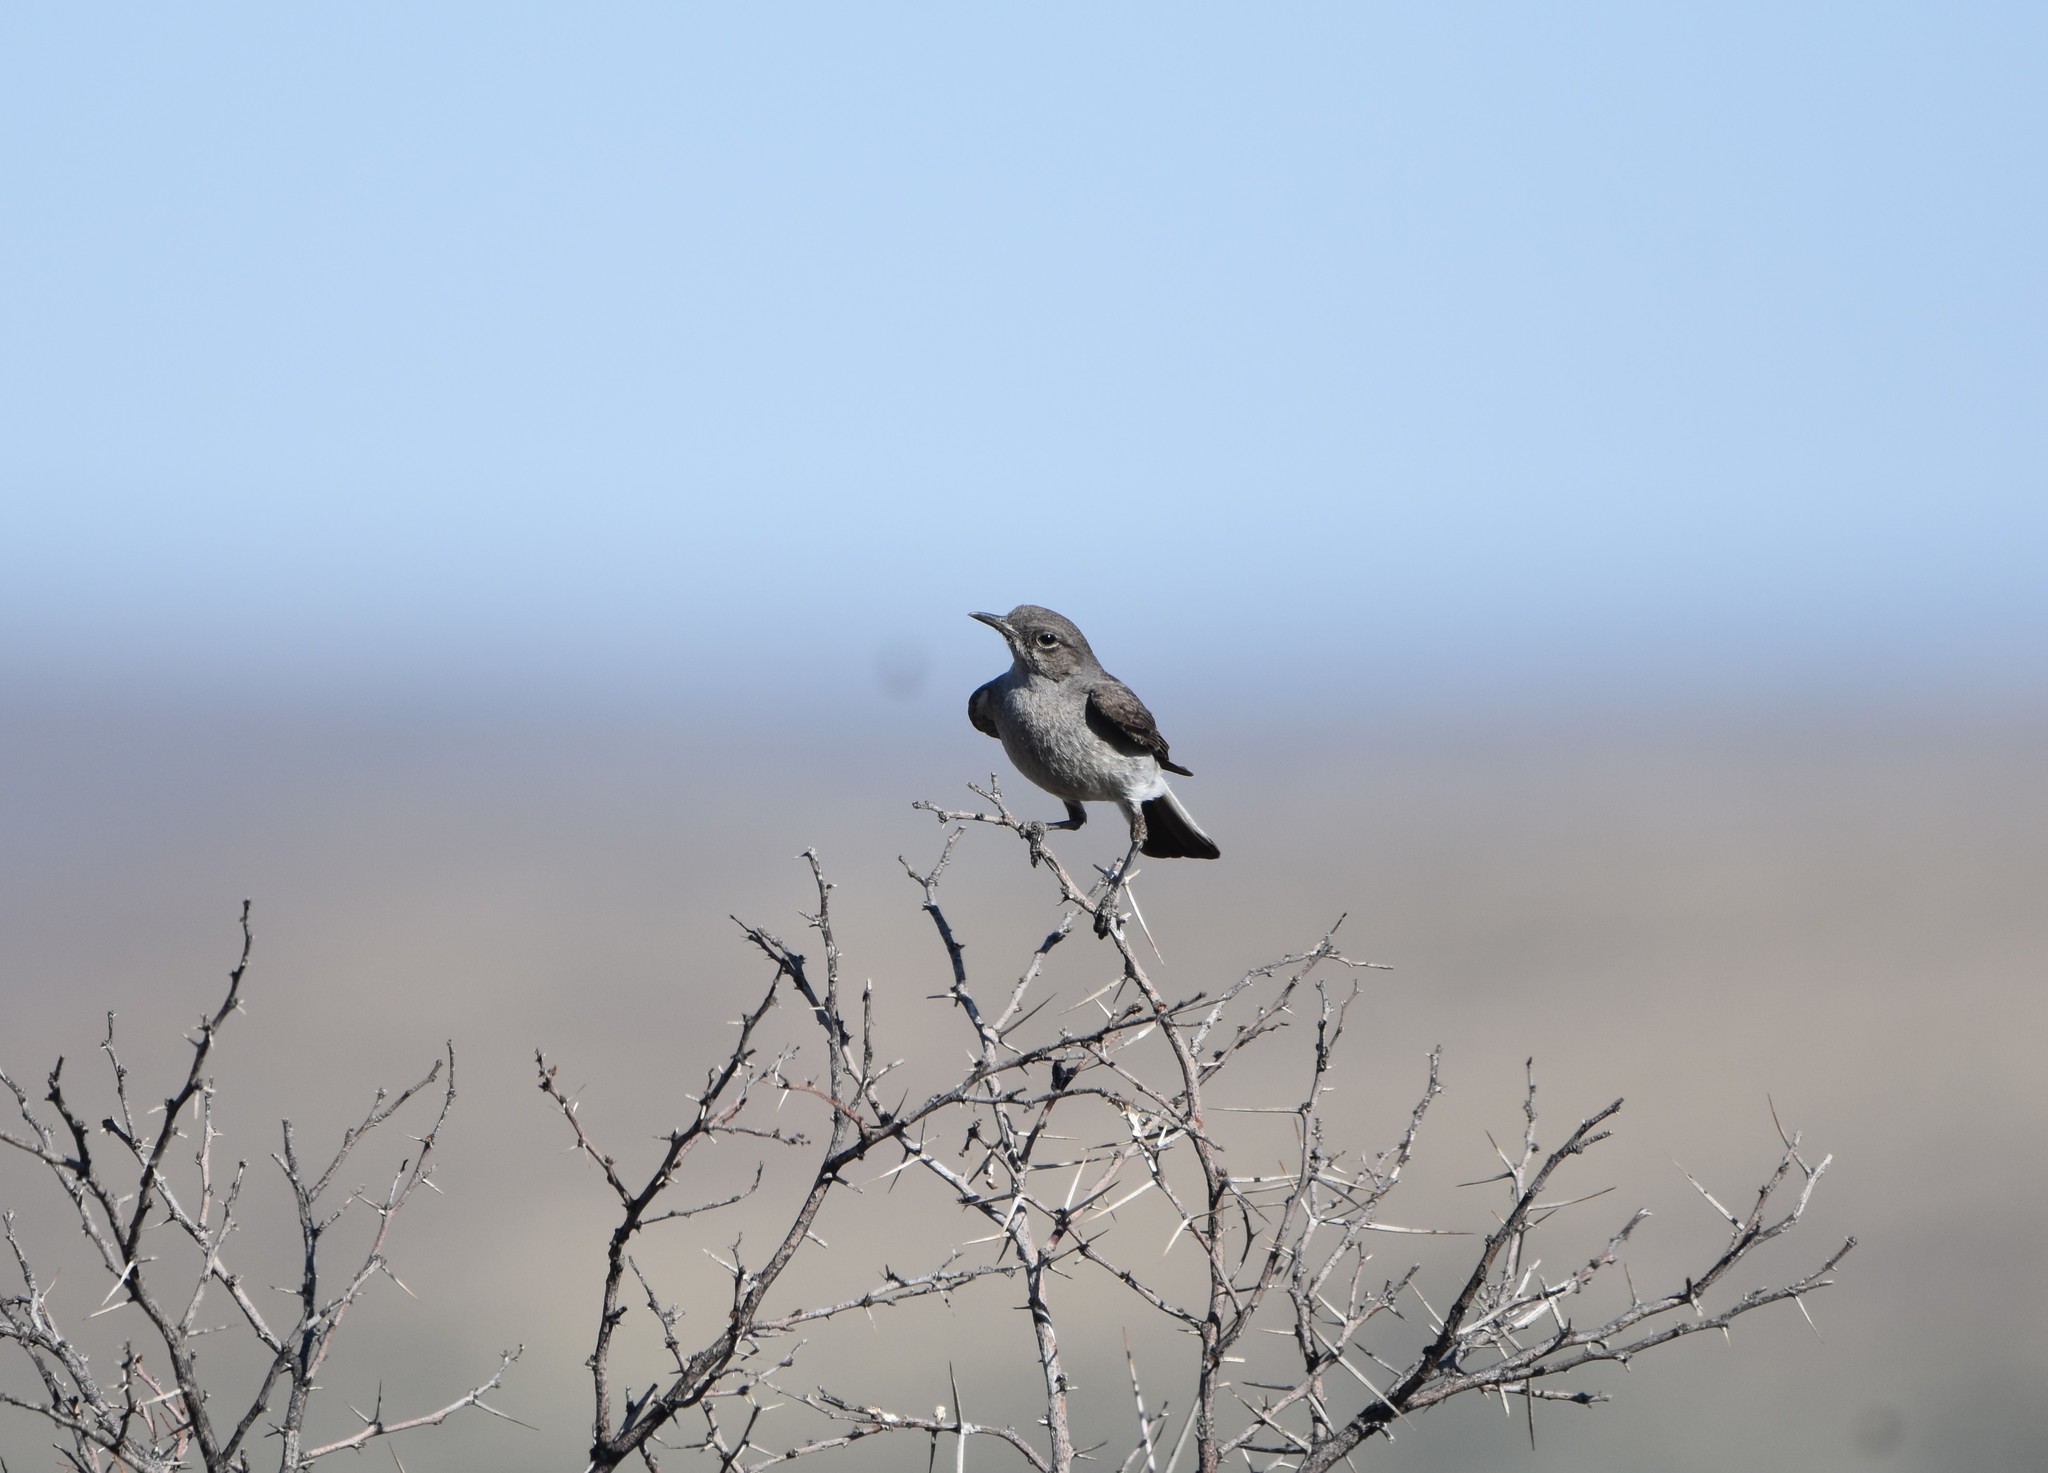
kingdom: Animalia
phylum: Chordata
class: Aves
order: Passeriformes
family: Muscicapidae
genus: Emarginata
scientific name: Emarginata schlegelii
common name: Karoo chat
